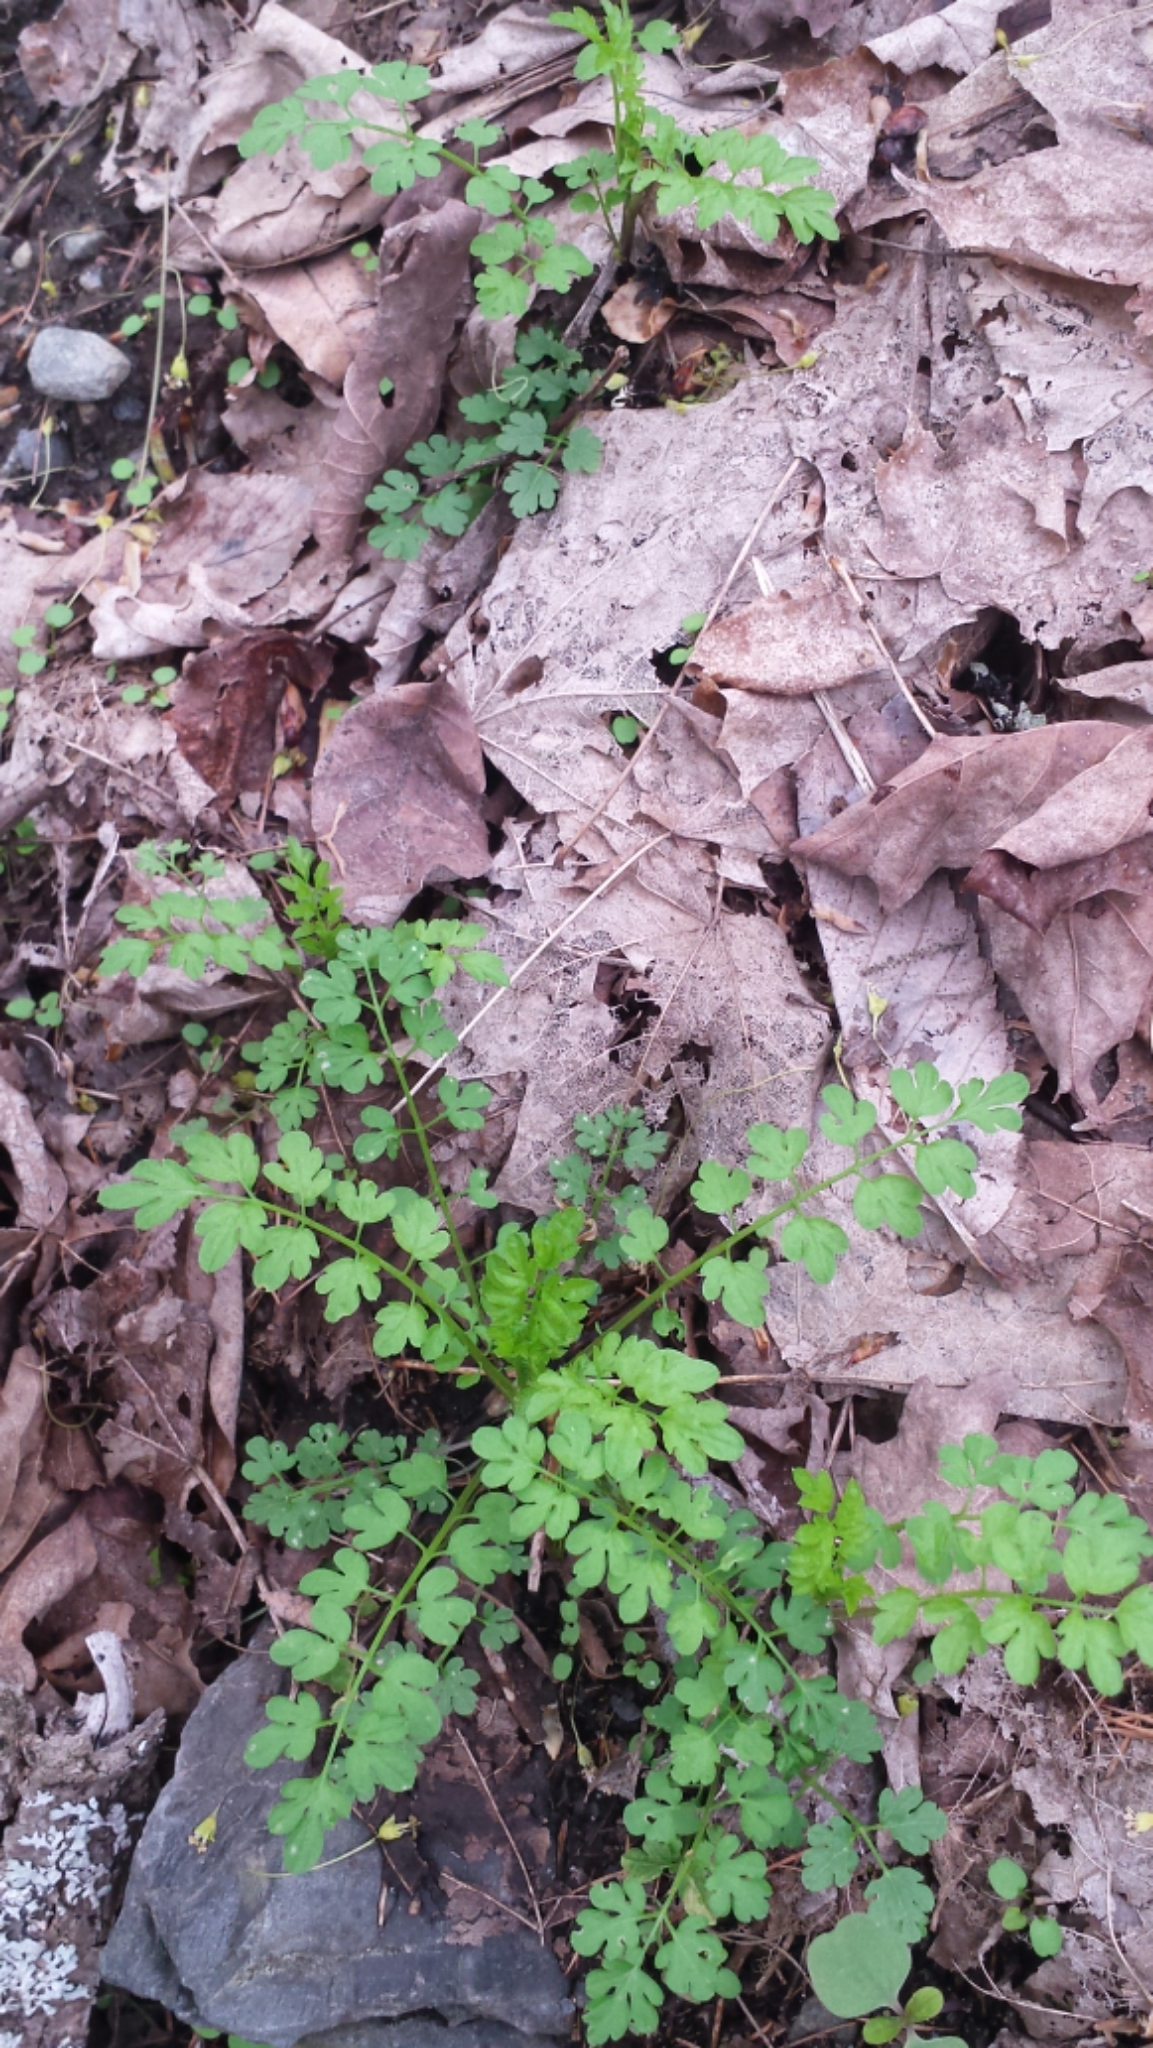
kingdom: Plantae
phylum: Tracheophyta
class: Magnoliopsida
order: Brassicales
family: Brassicaceae
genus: Cardamine
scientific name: Cardamine impatiens
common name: Narrow-leaved bitter-cress
